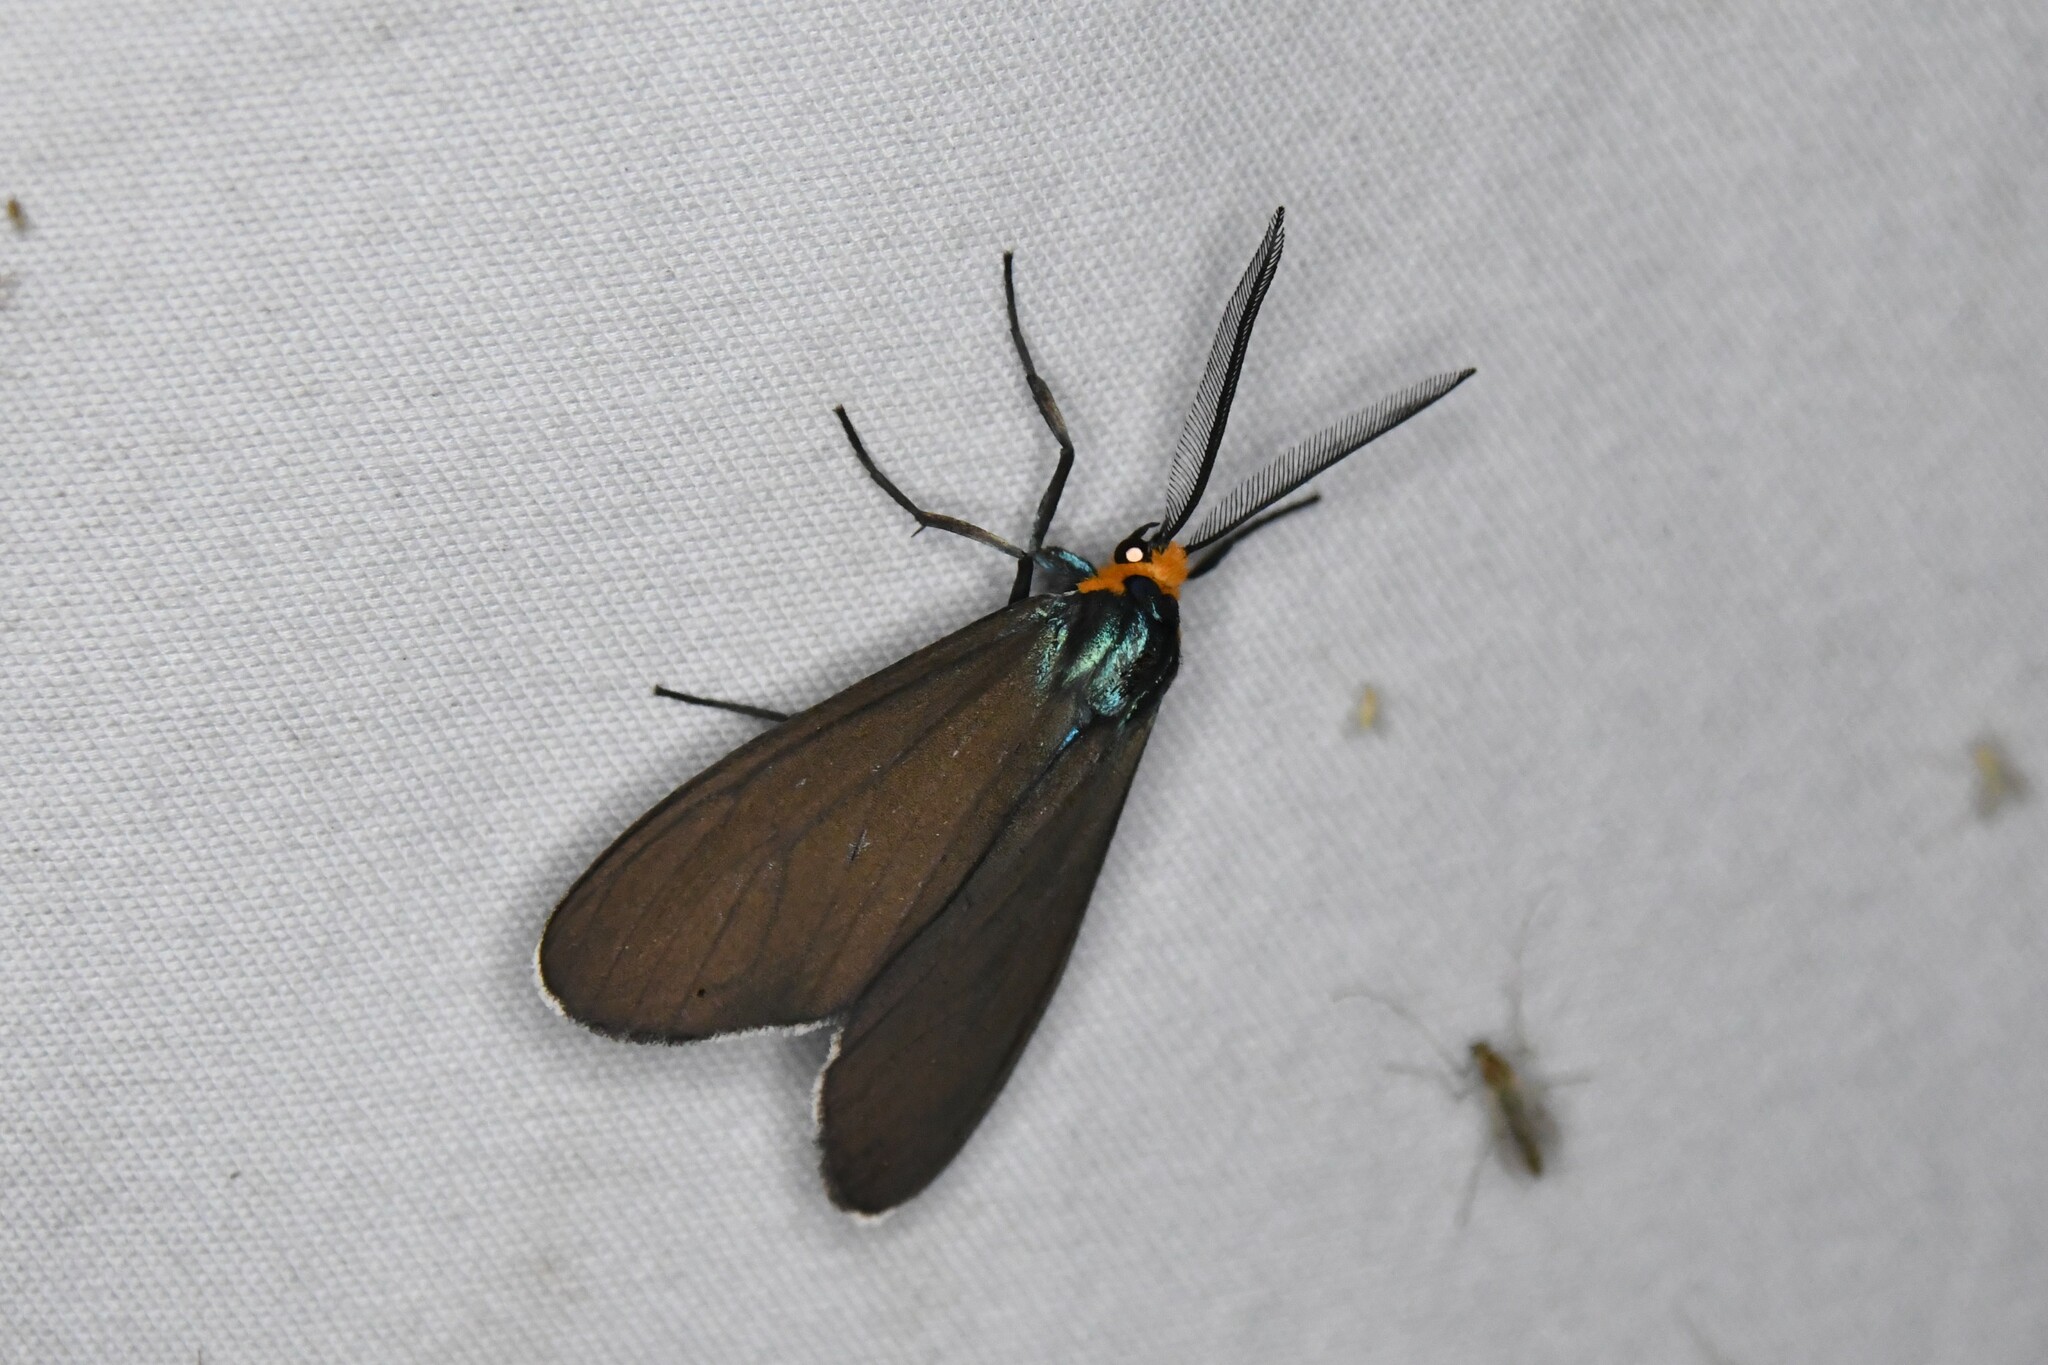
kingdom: Animalia
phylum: Arthropoda
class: Insecta
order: Lepidoptera
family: Erebidae
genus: Ctenucha
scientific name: Ctenucha virginica
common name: Virginia ctenucha moth
